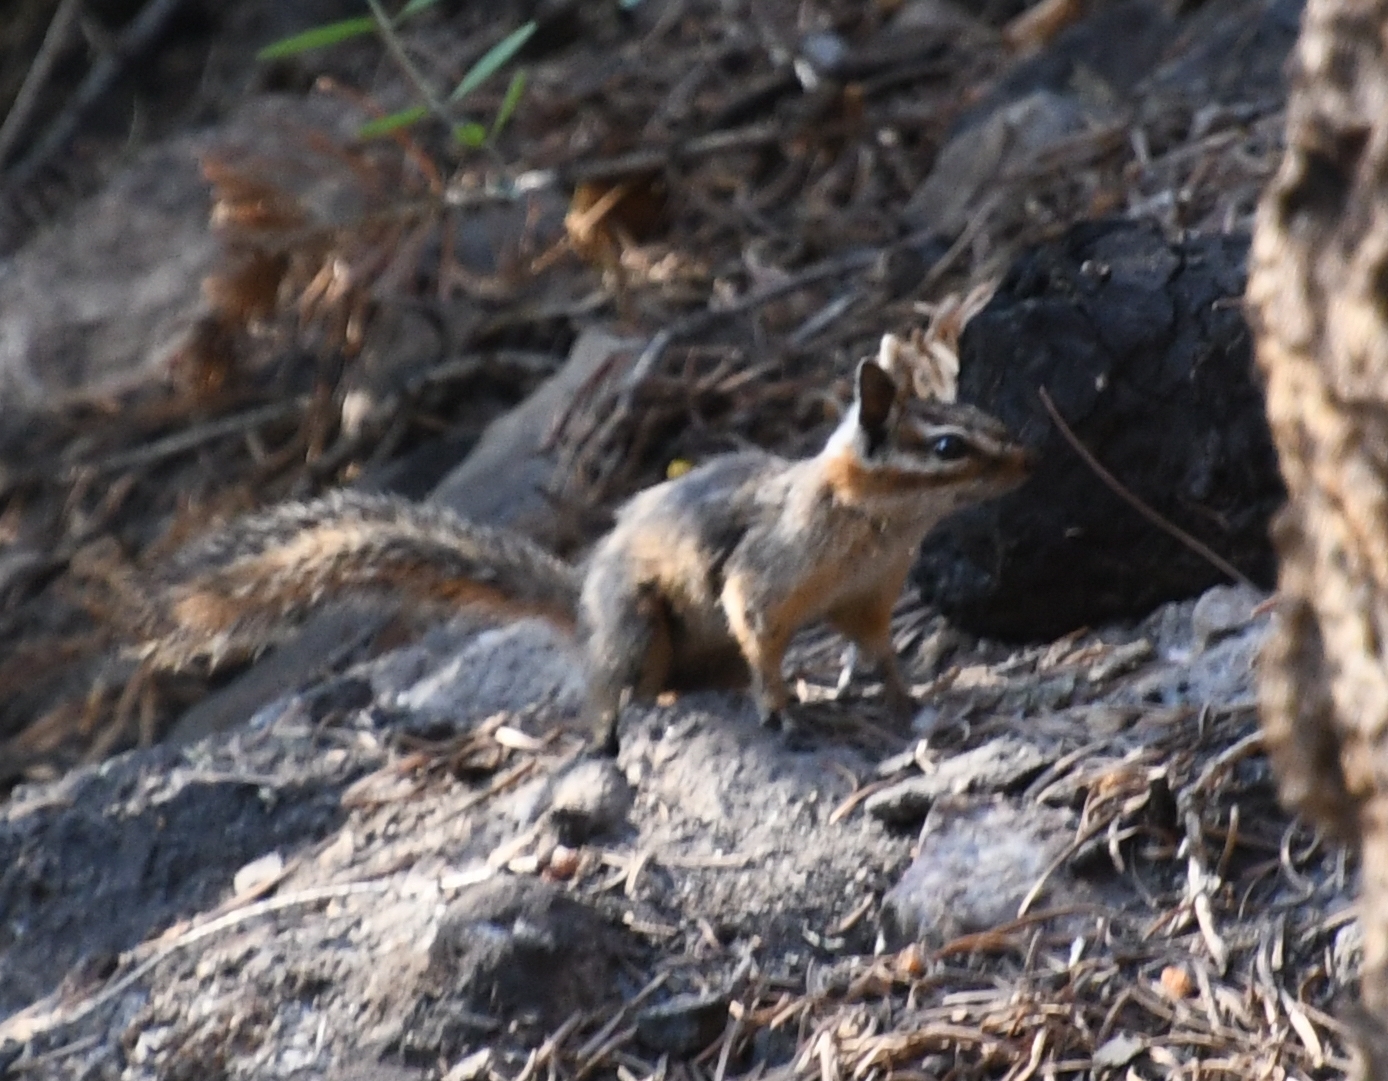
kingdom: Animalia
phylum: Chordata
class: Mammalia
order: Rodentia
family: Sciuridae
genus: Tamias
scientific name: Tamias dorsalis
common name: Cliff chipmunk
